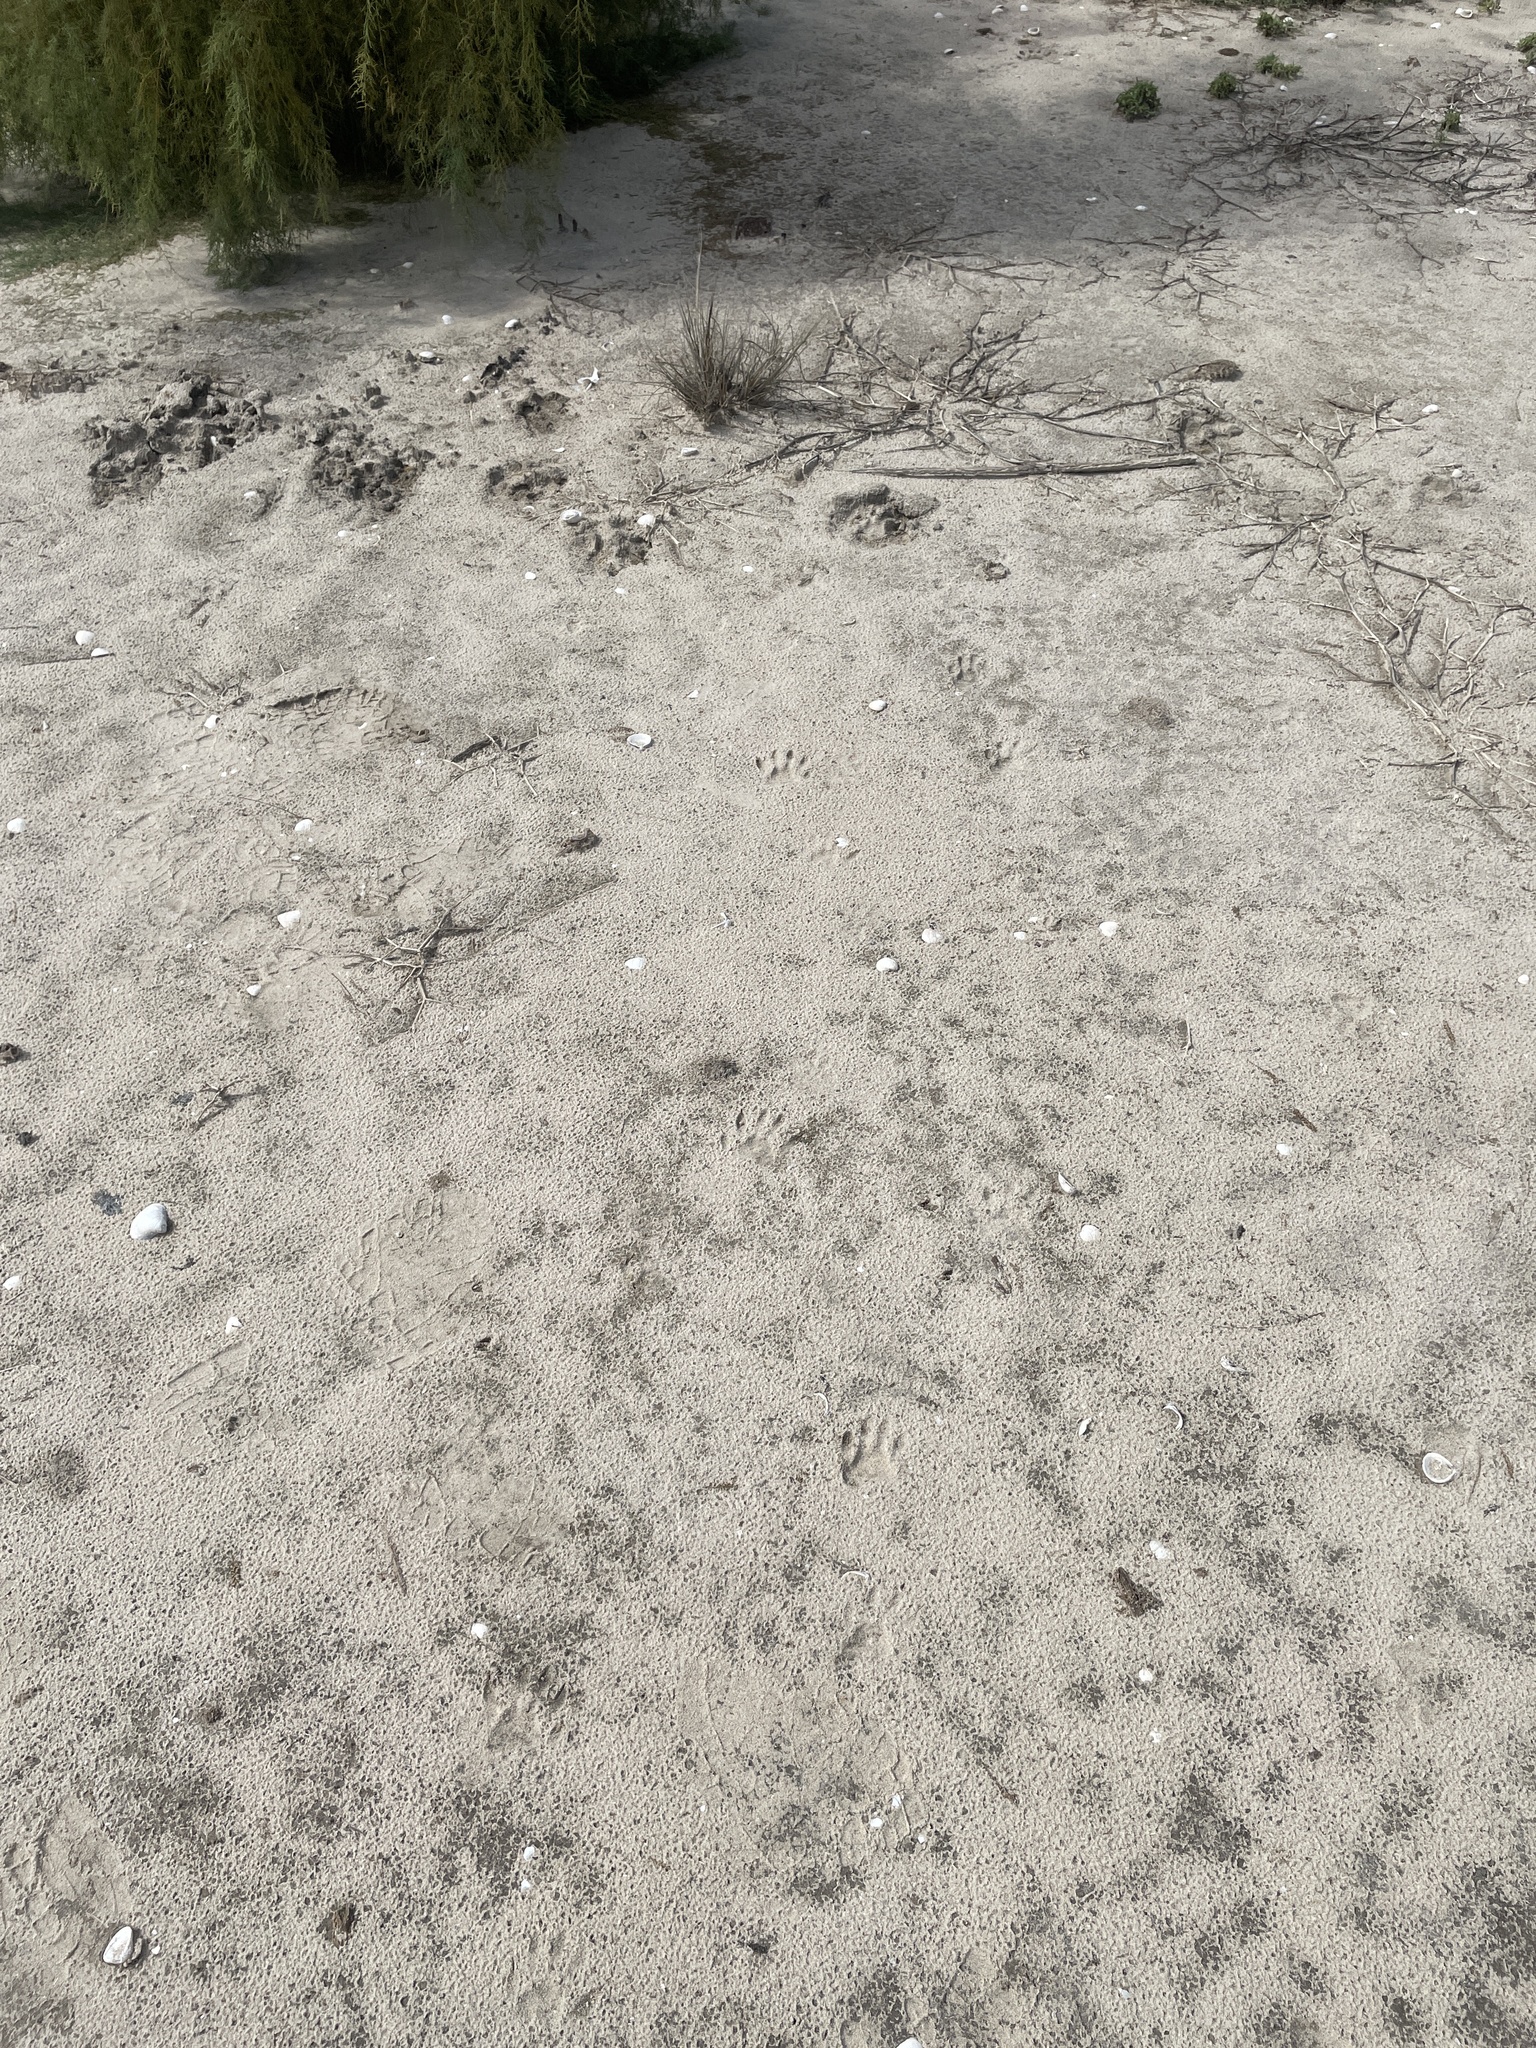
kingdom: Animalia
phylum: Chordata
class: Mammalia
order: Carnivora
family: Procyonidae
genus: Procyon
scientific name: Procyon lotor
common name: Raccoon
